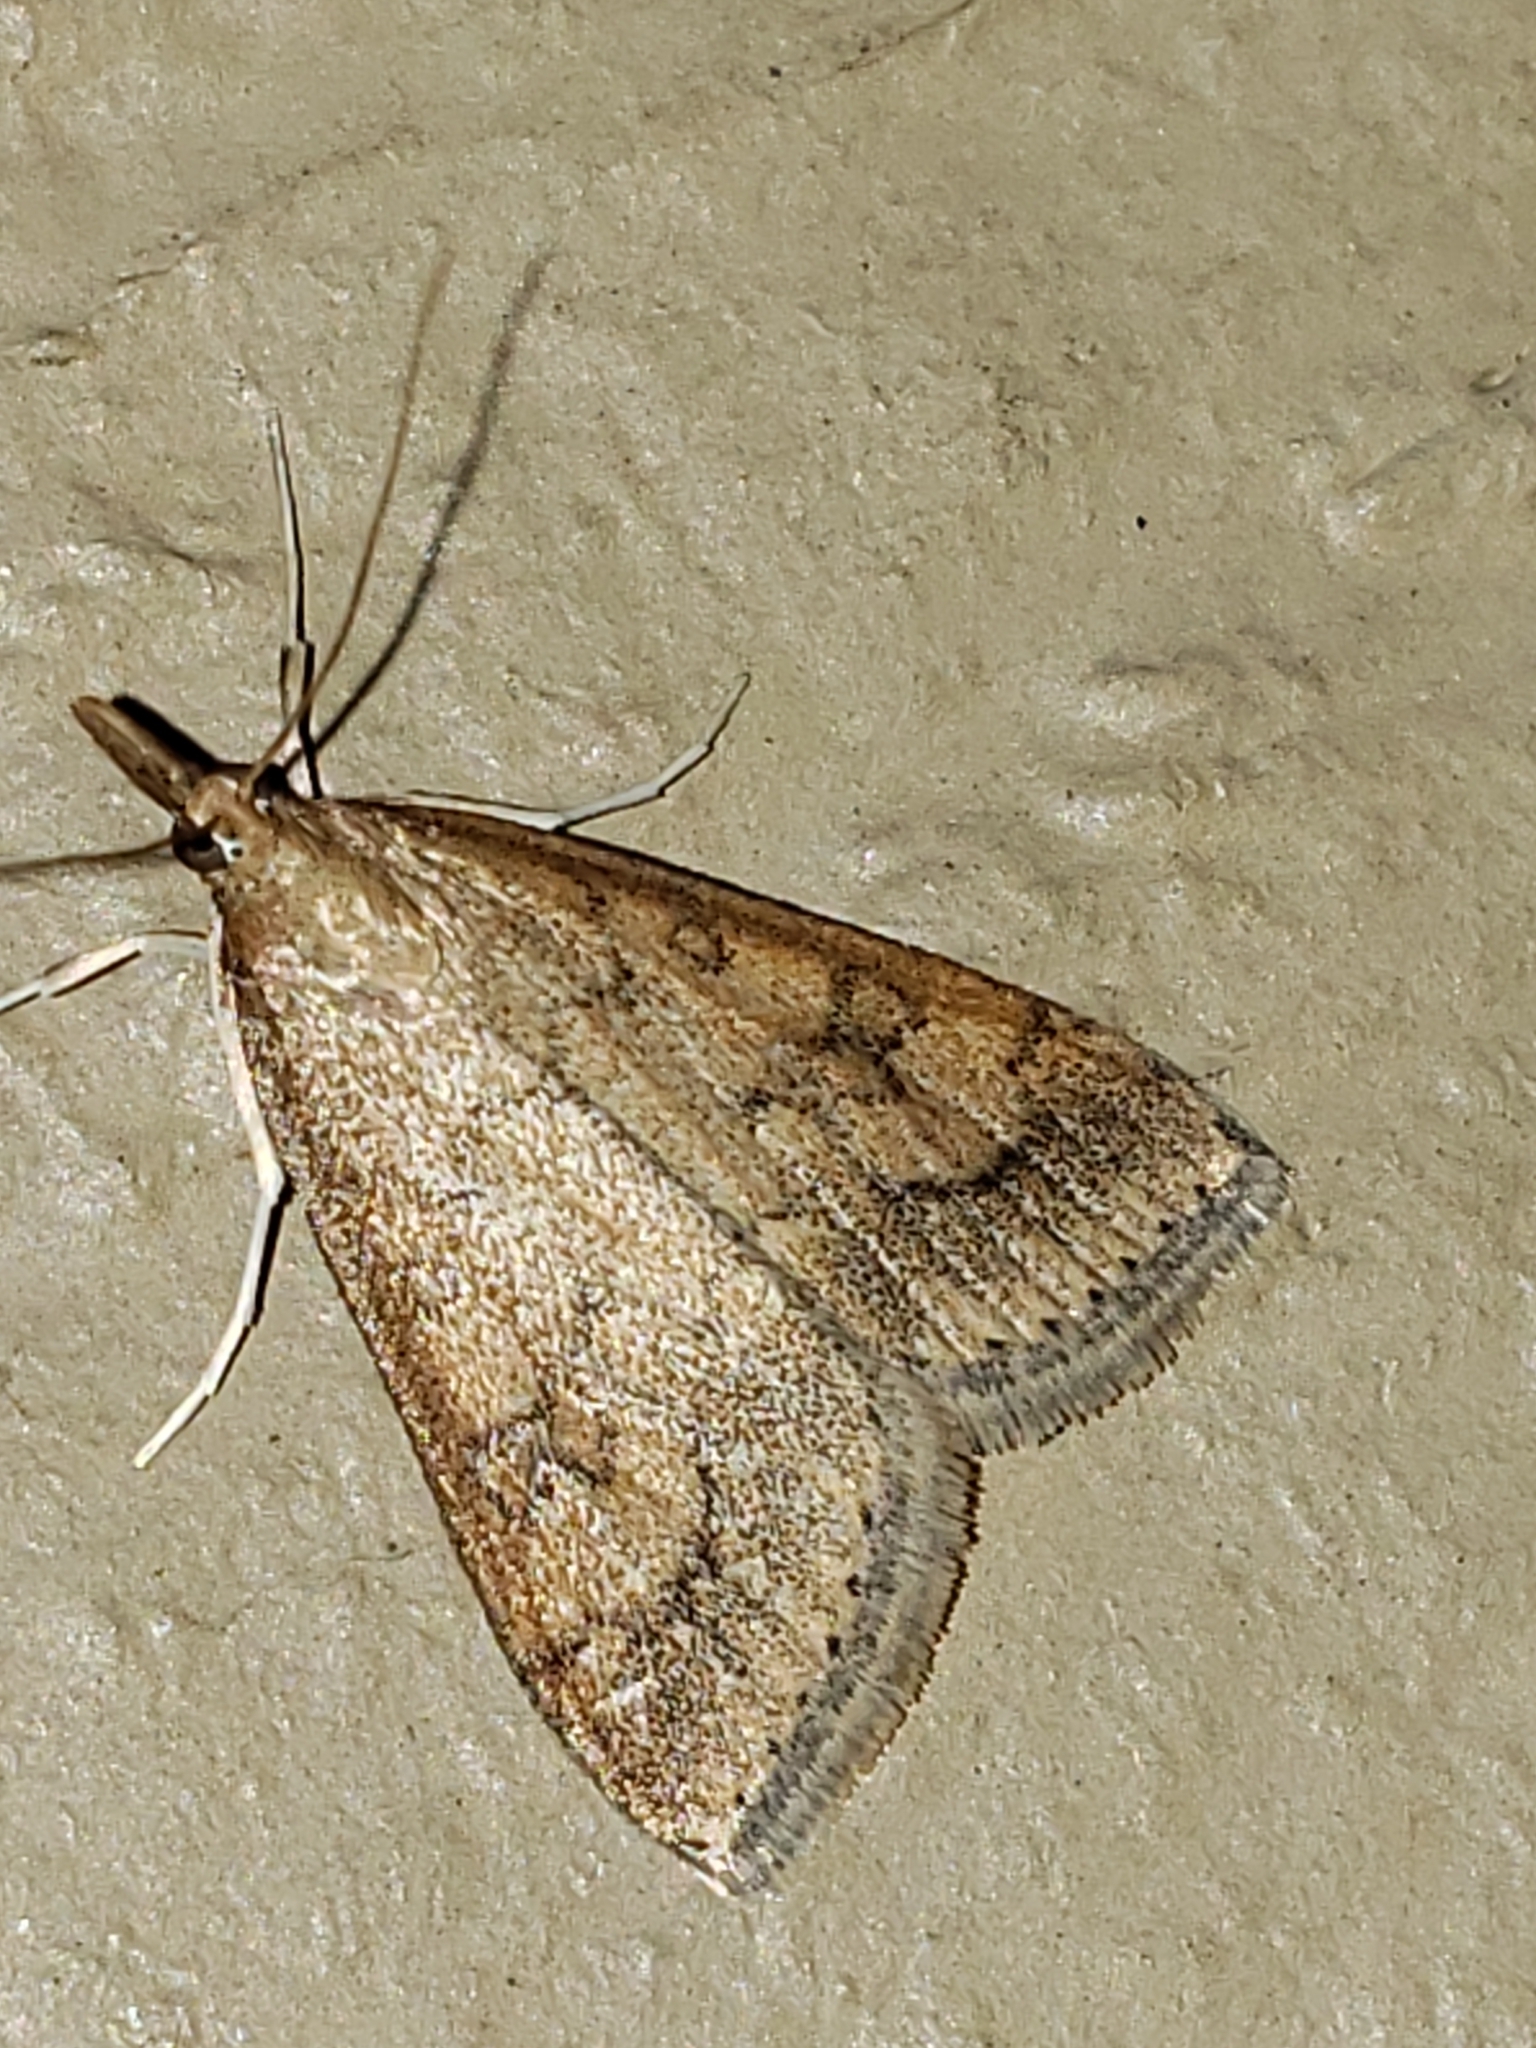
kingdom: Animalia
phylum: Arthropoda
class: Insecta
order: Lepidoptera
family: Crambidae
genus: Udea
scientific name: Udea rubigalis
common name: Celery leaftier moth
